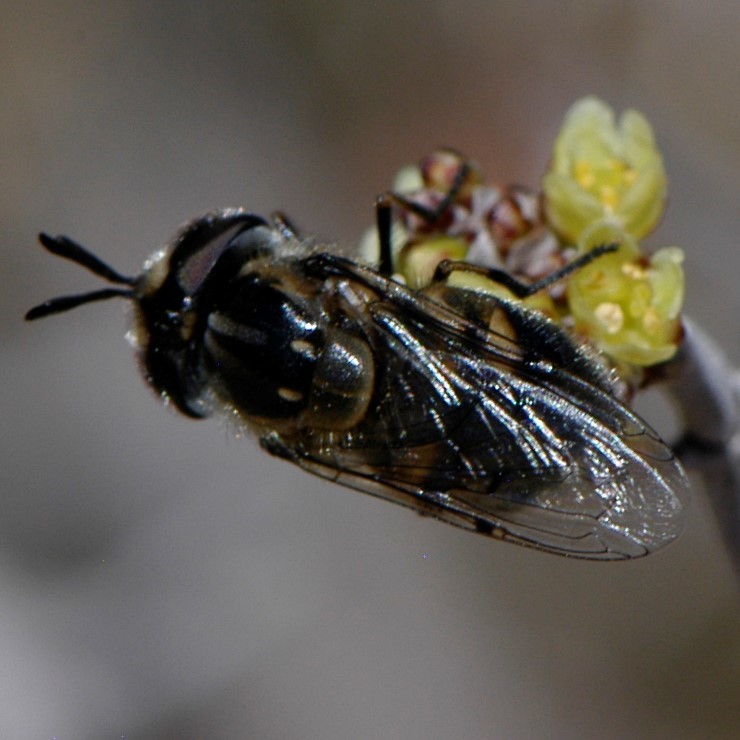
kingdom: Animalia
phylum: Arthropoda
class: Insecta
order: Diptera
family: Syrphidae
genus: Copestylum
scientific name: Copestylum lentum
